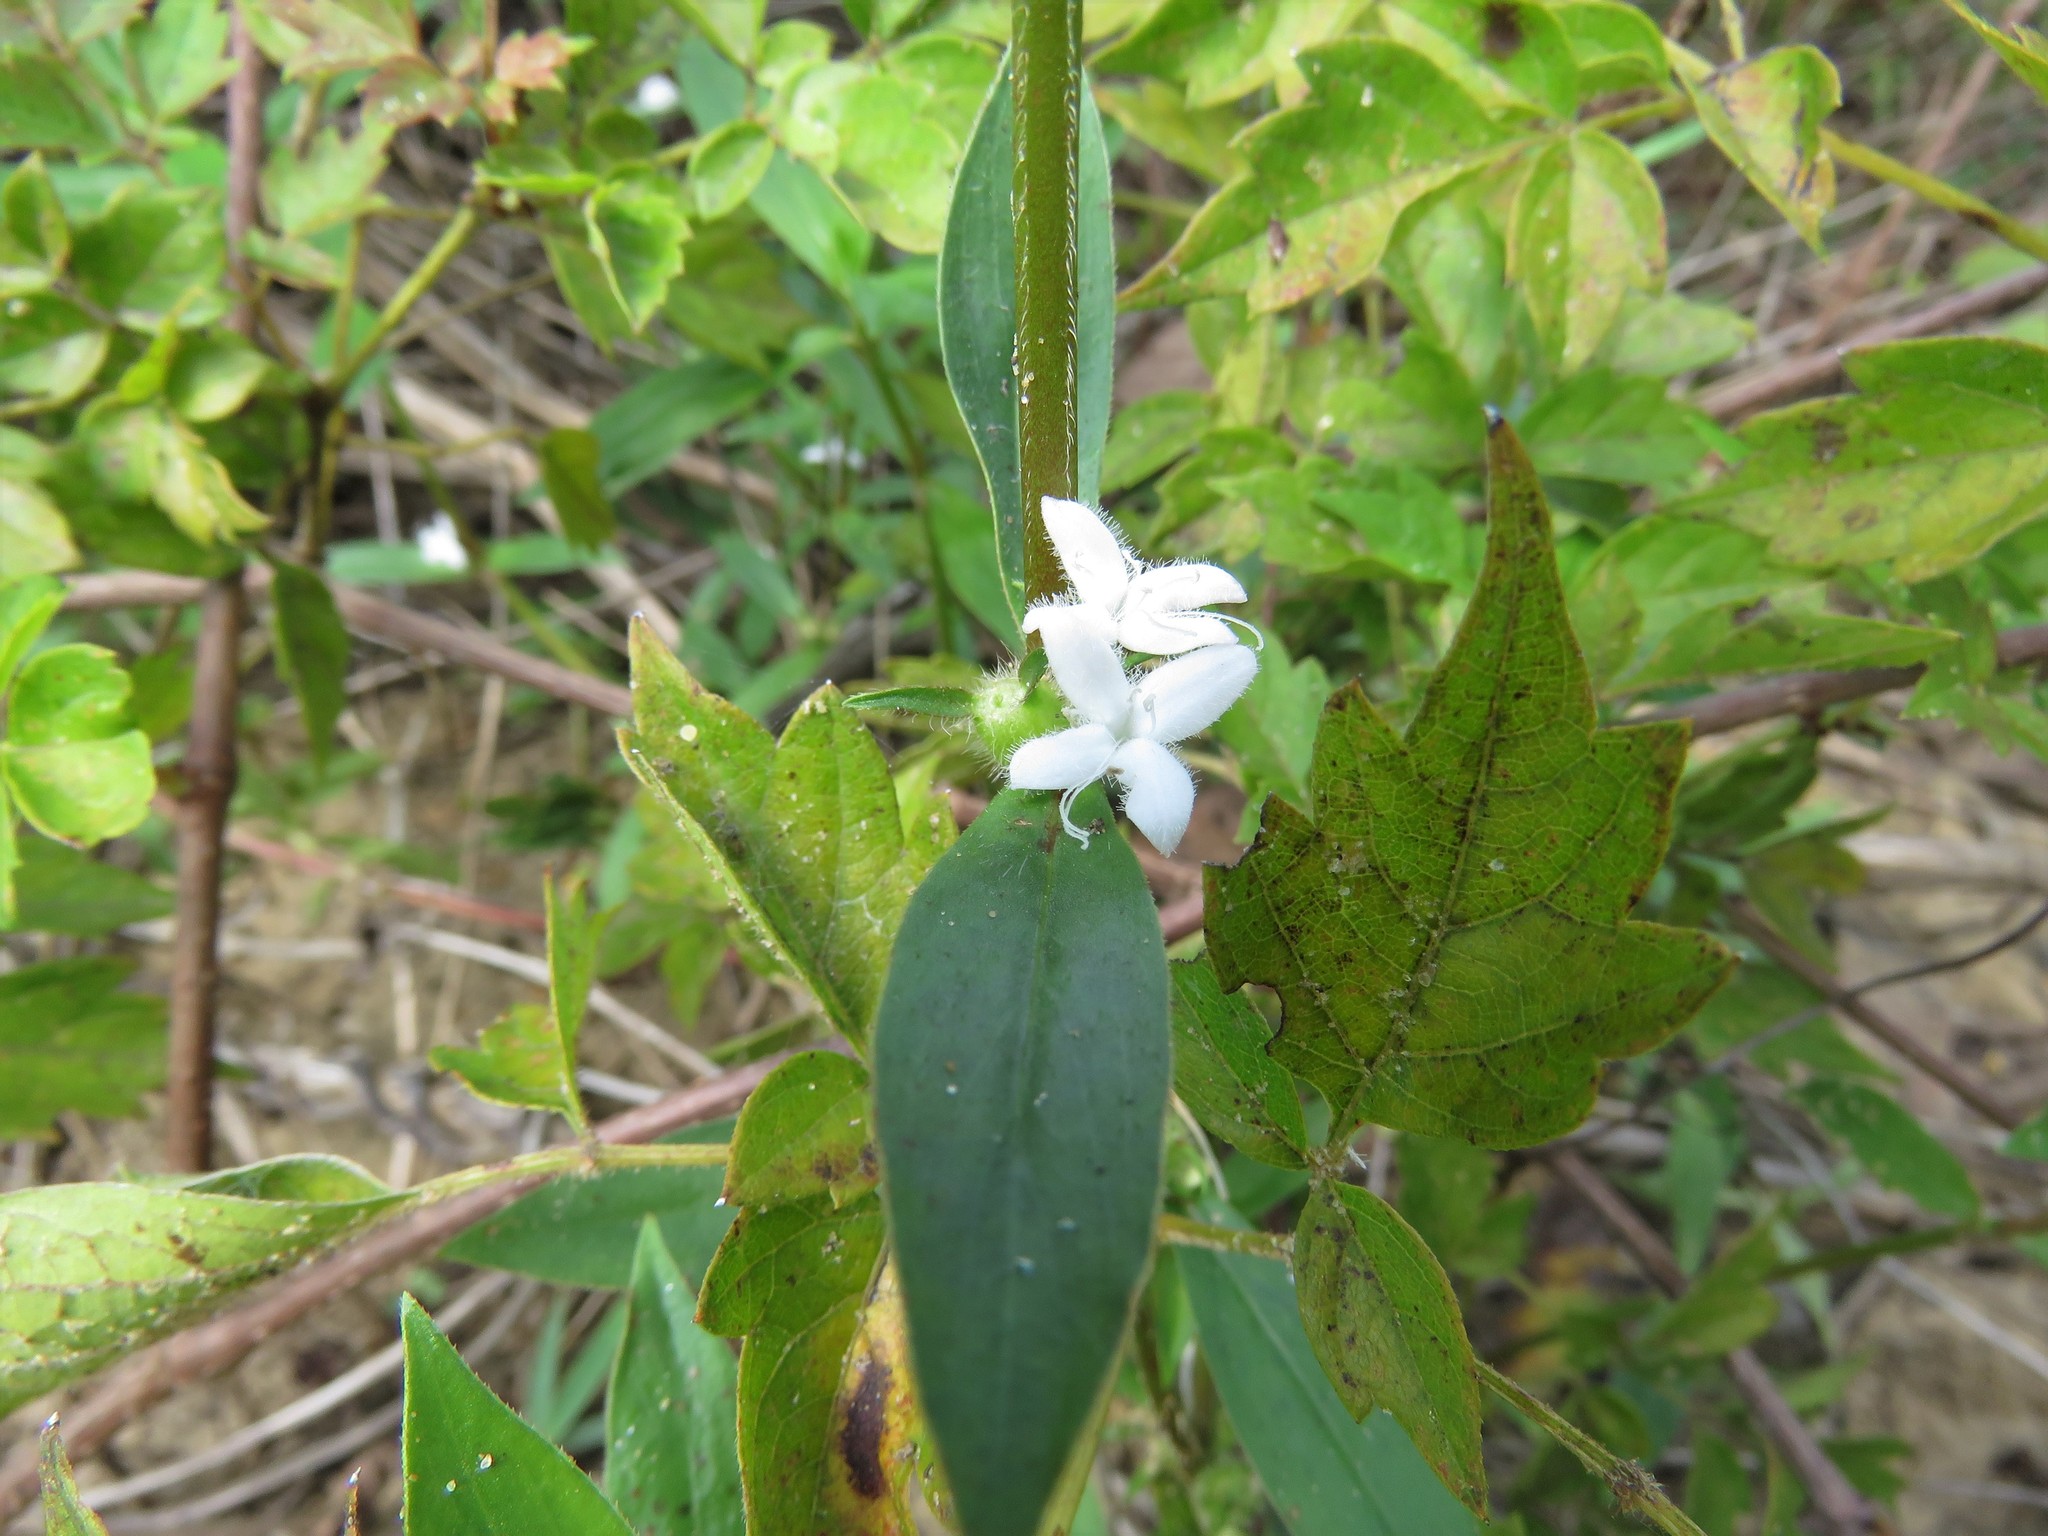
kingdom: Plantae
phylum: Tracheophyta
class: Magnoliopsida
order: Gentianales
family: Rubiaceae
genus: Diodia
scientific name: Diodia virginiana
